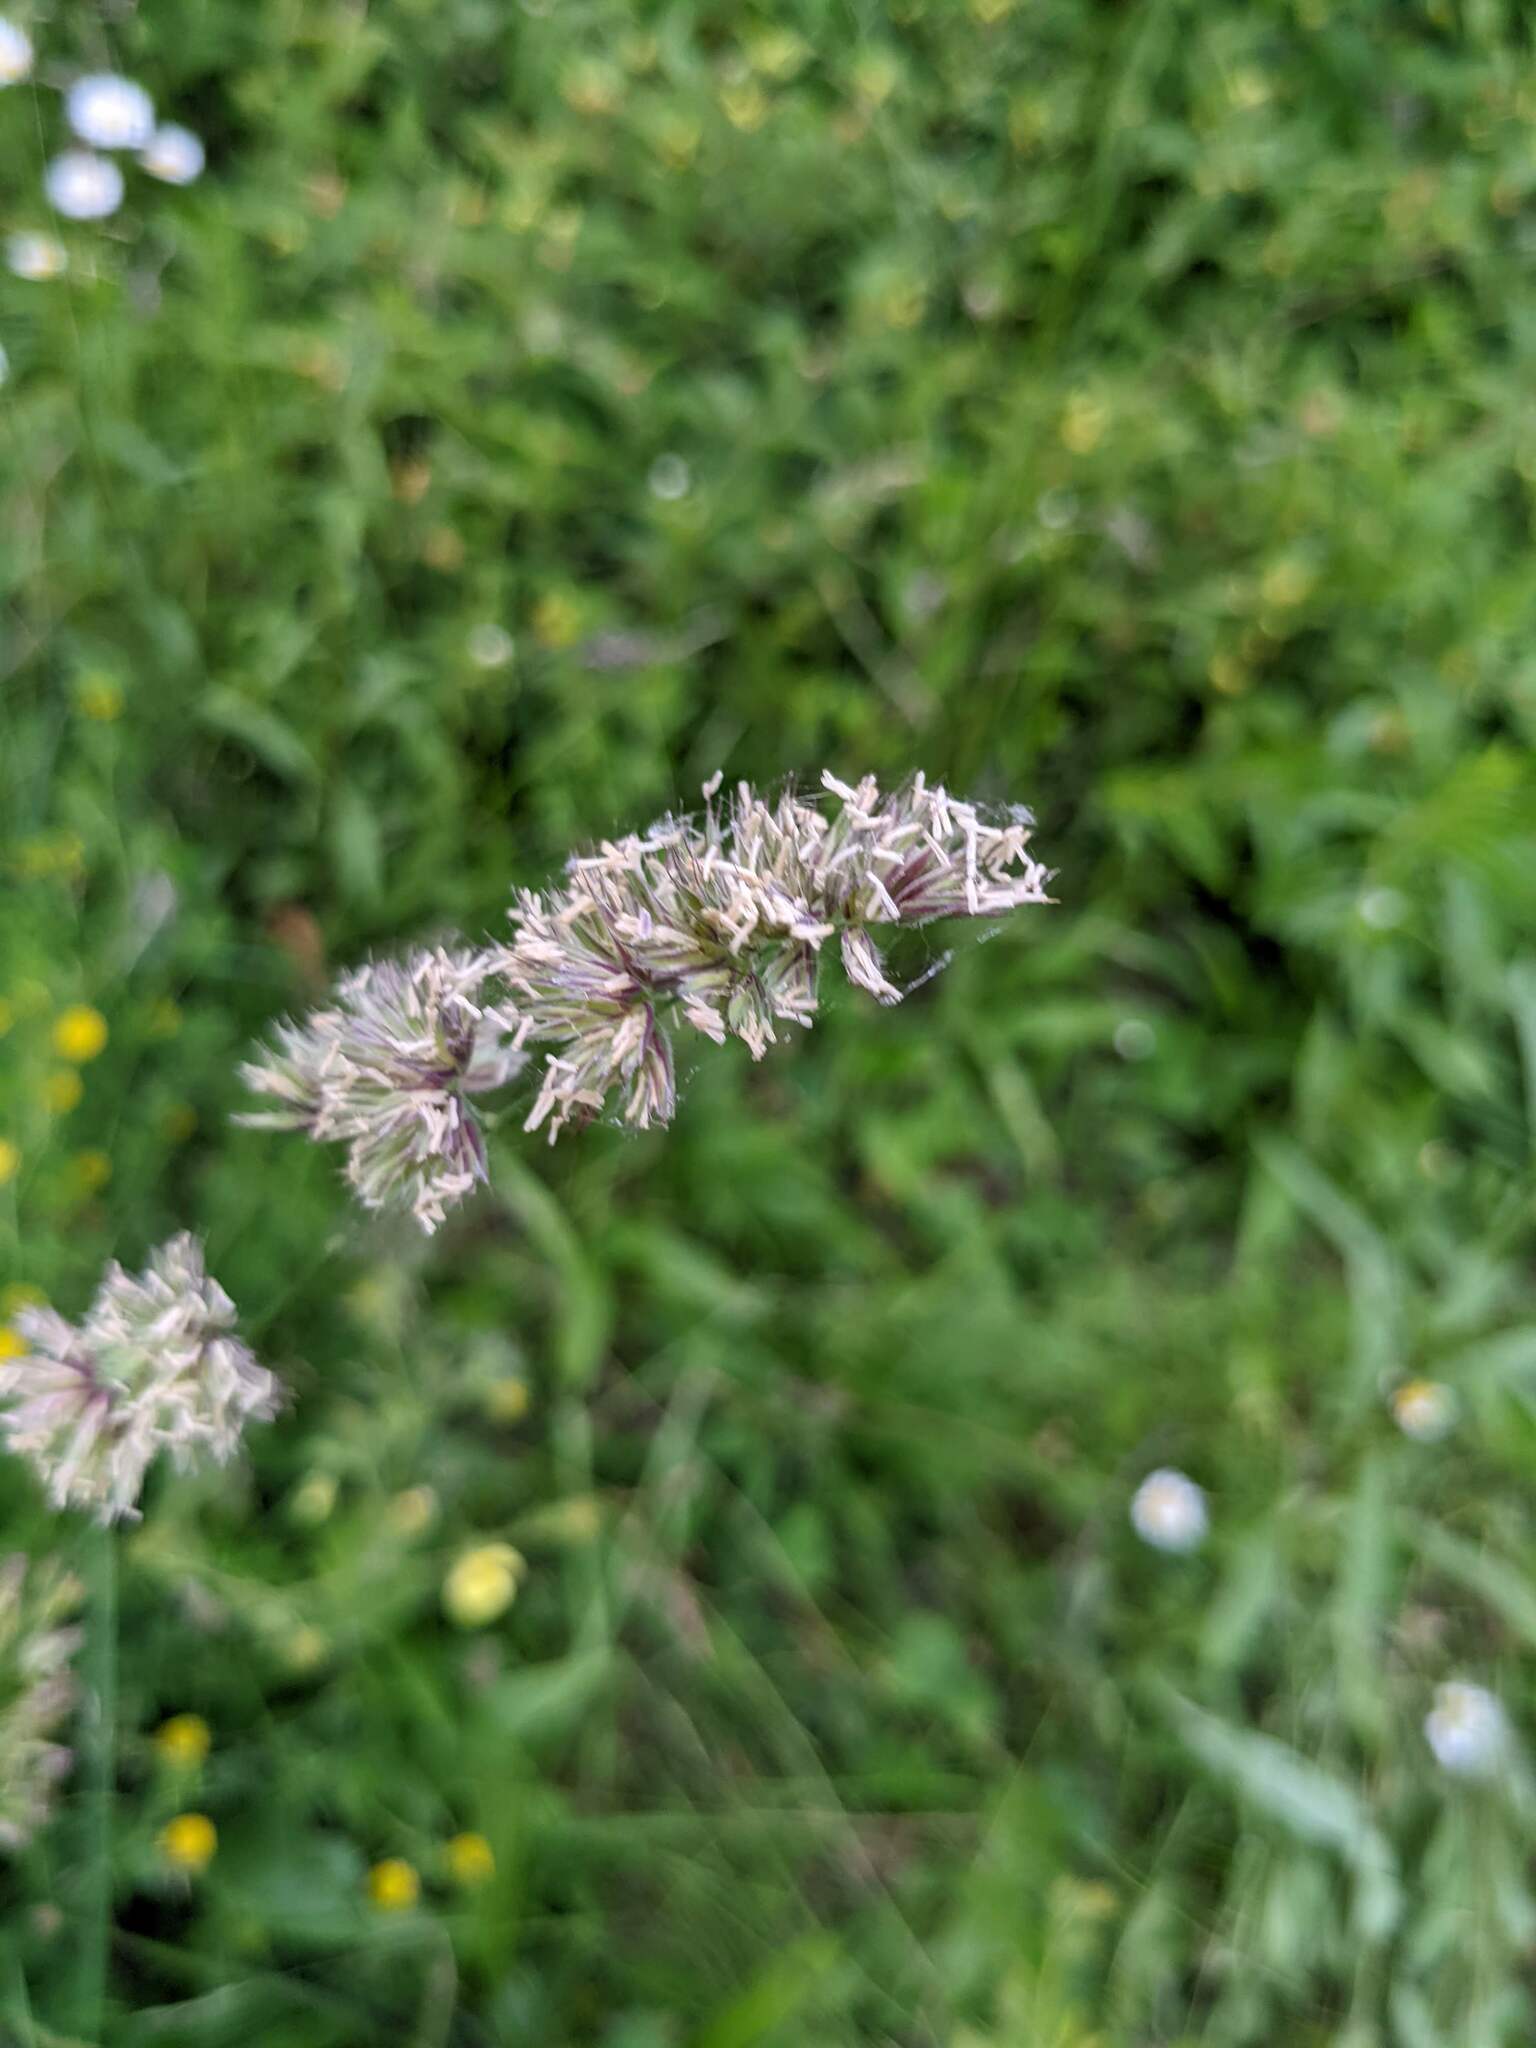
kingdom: Plantae
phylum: Tracheophyta
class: Liliopsida
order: Poales
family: Poaceae
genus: Dactylis
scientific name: Dactylis glomerata
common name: Orchardgrass
